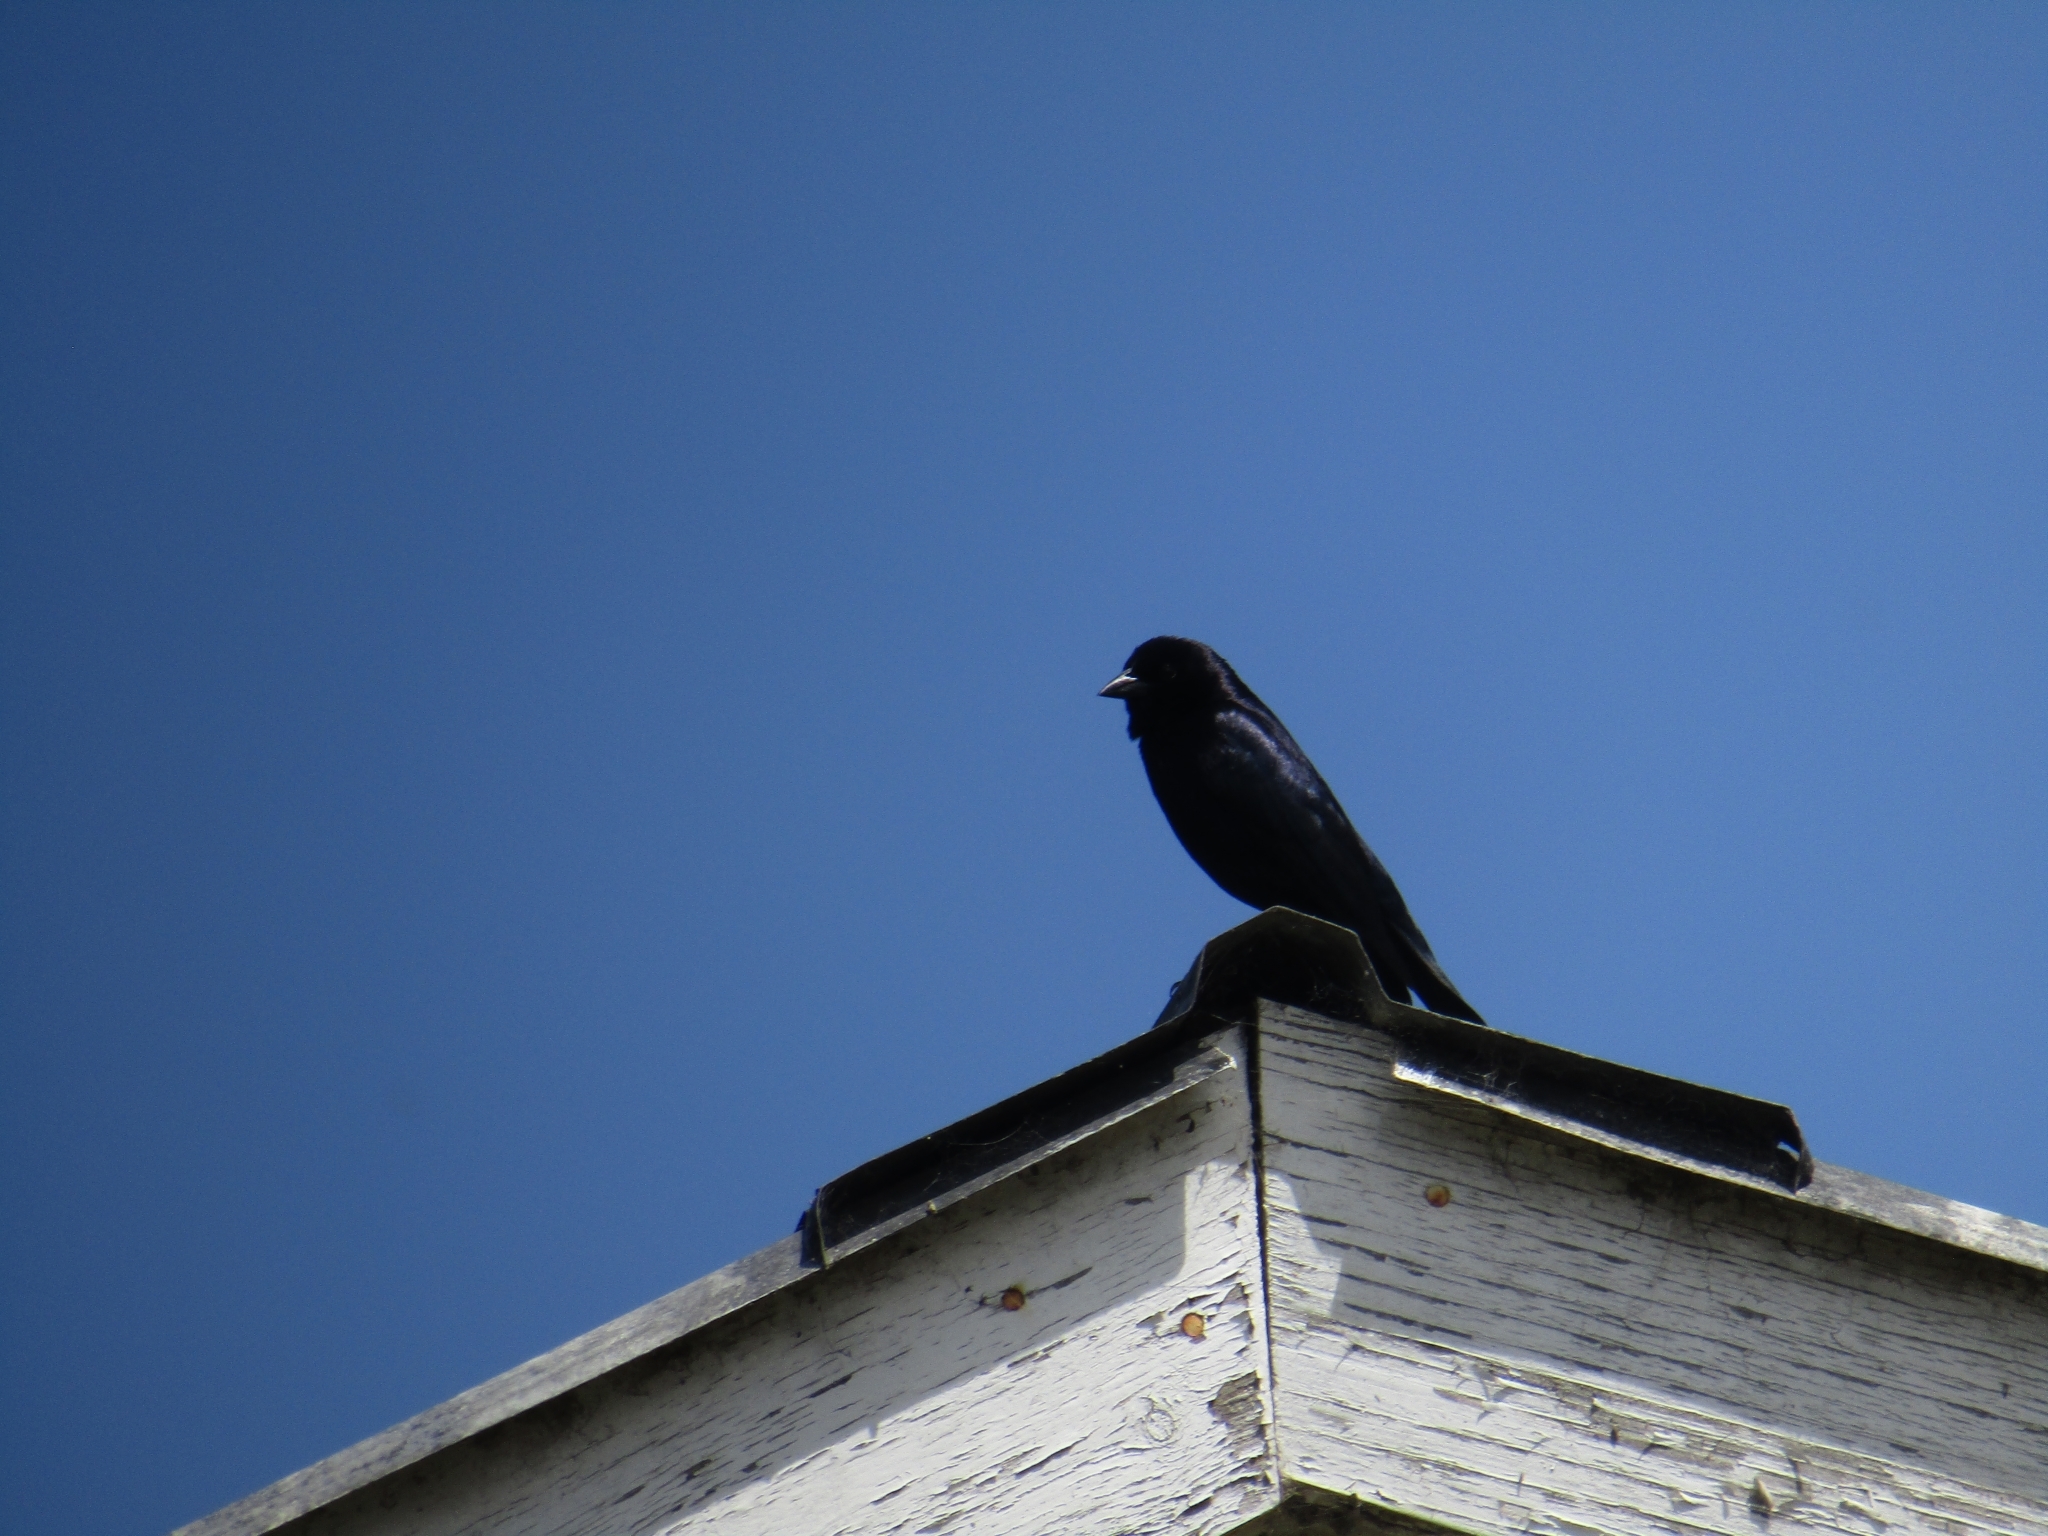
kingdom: Animalia
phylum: Chordata
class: Aves
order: Passeriformes
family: Icteridae
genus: Molothrus
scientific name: Molothrus bonariensis
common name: Shiny cowbird
